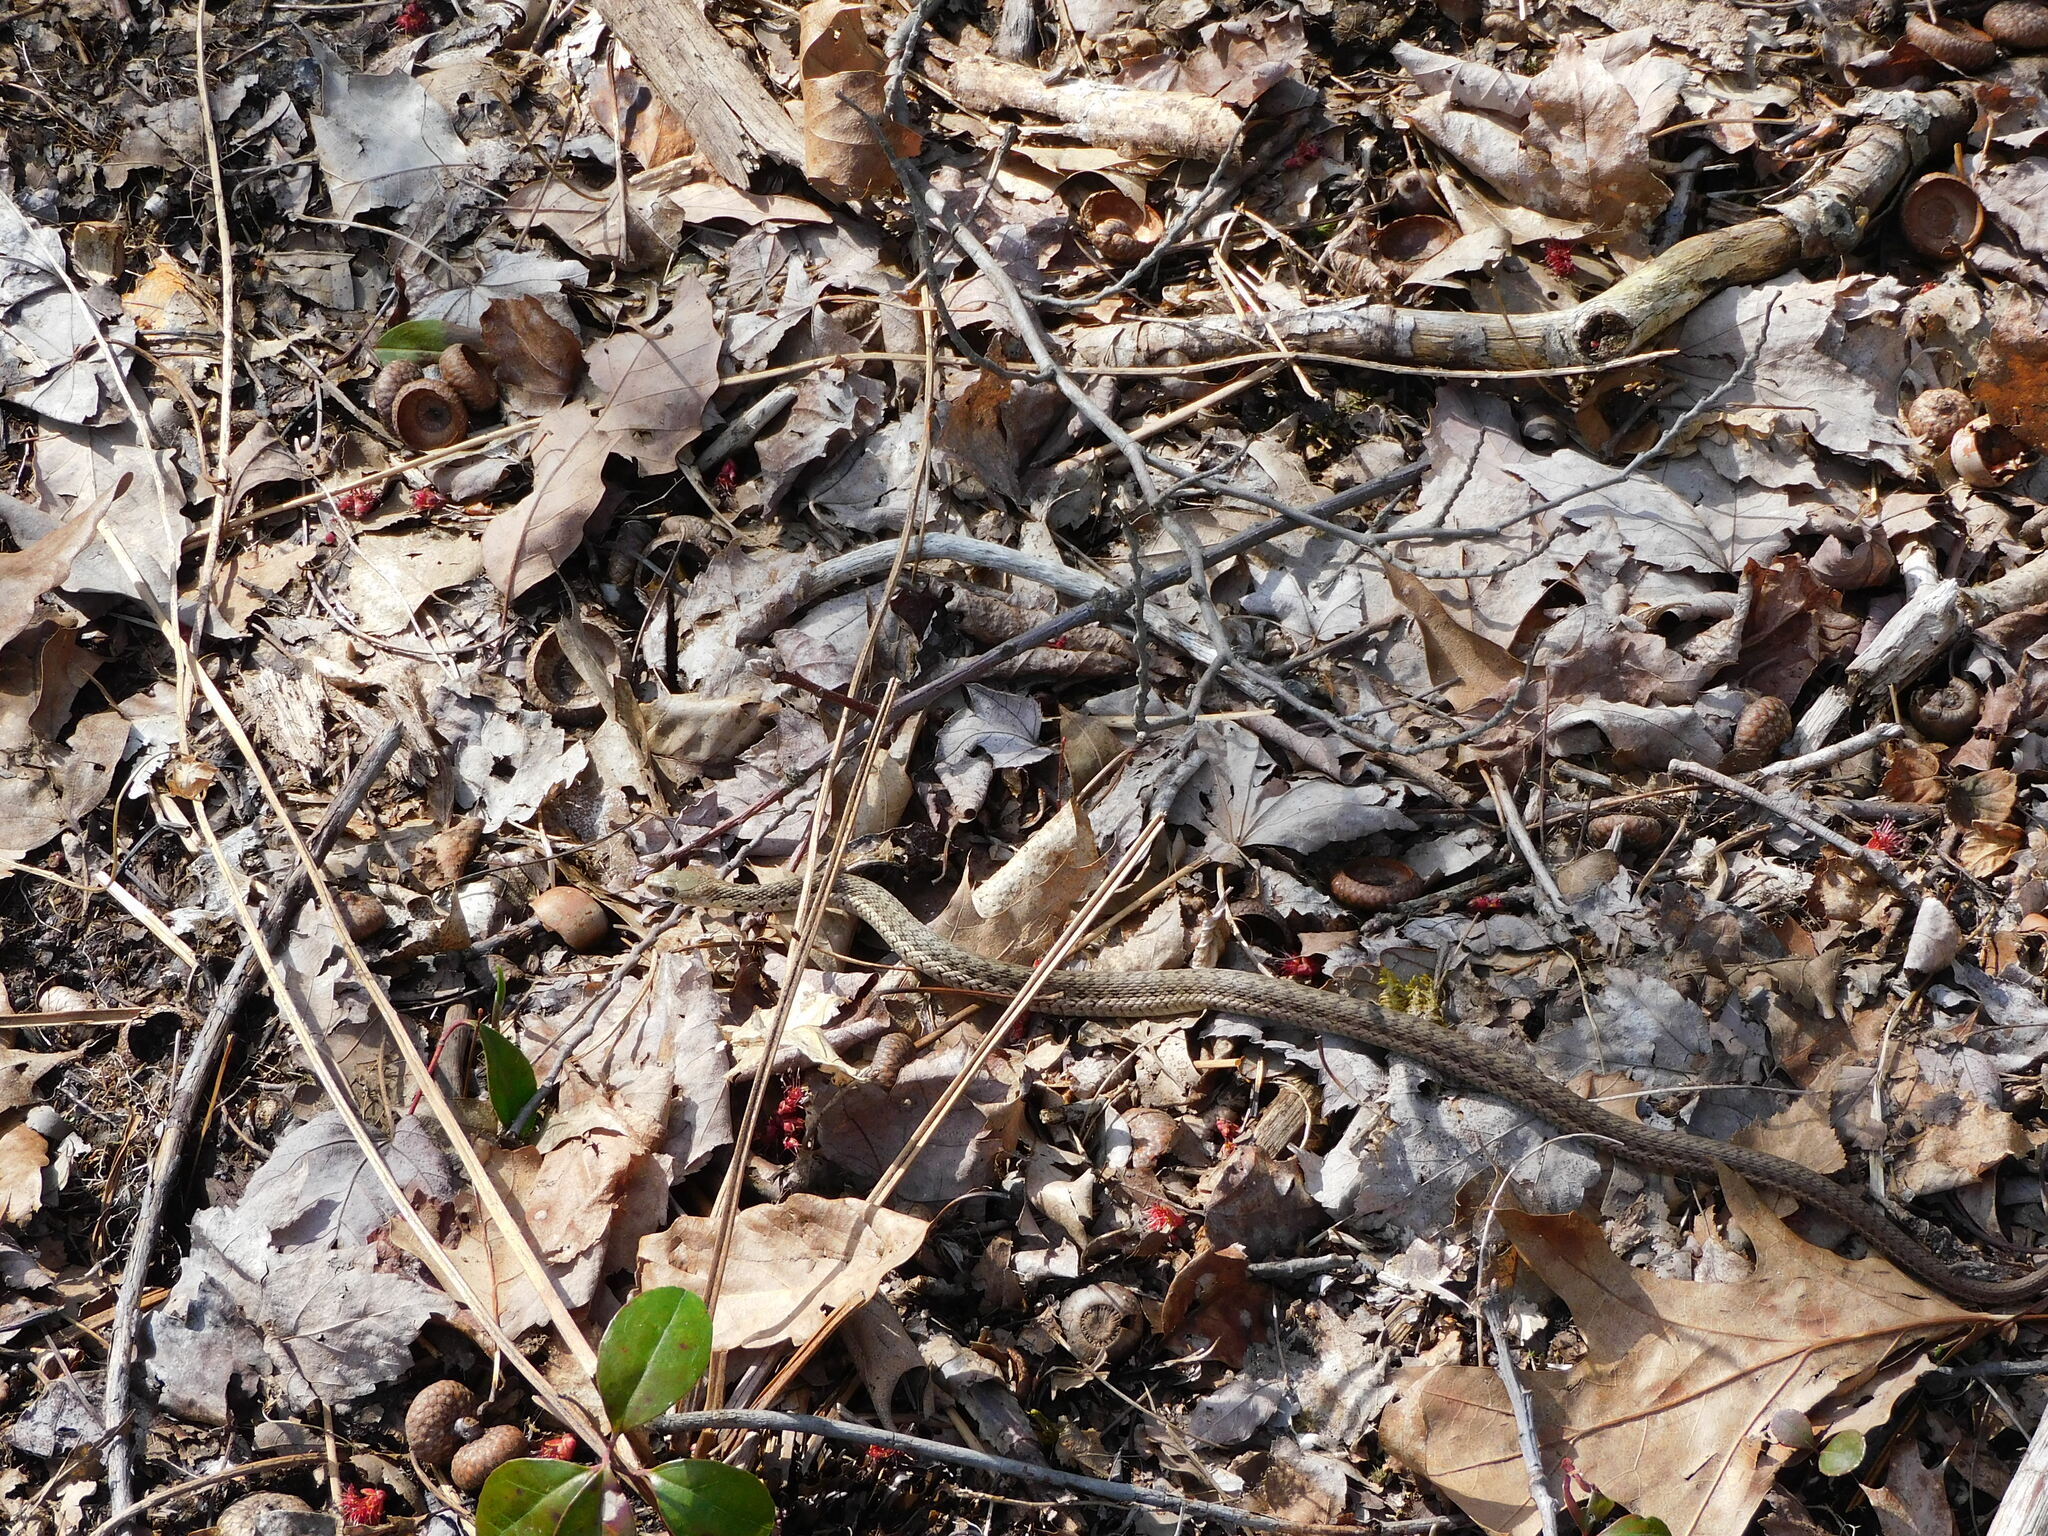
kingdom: Animalia
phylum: Chordata
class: Squamata
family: Colubridae
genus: Thamnophis
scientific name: Thamnophis sirtalis
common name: Common garter snake
